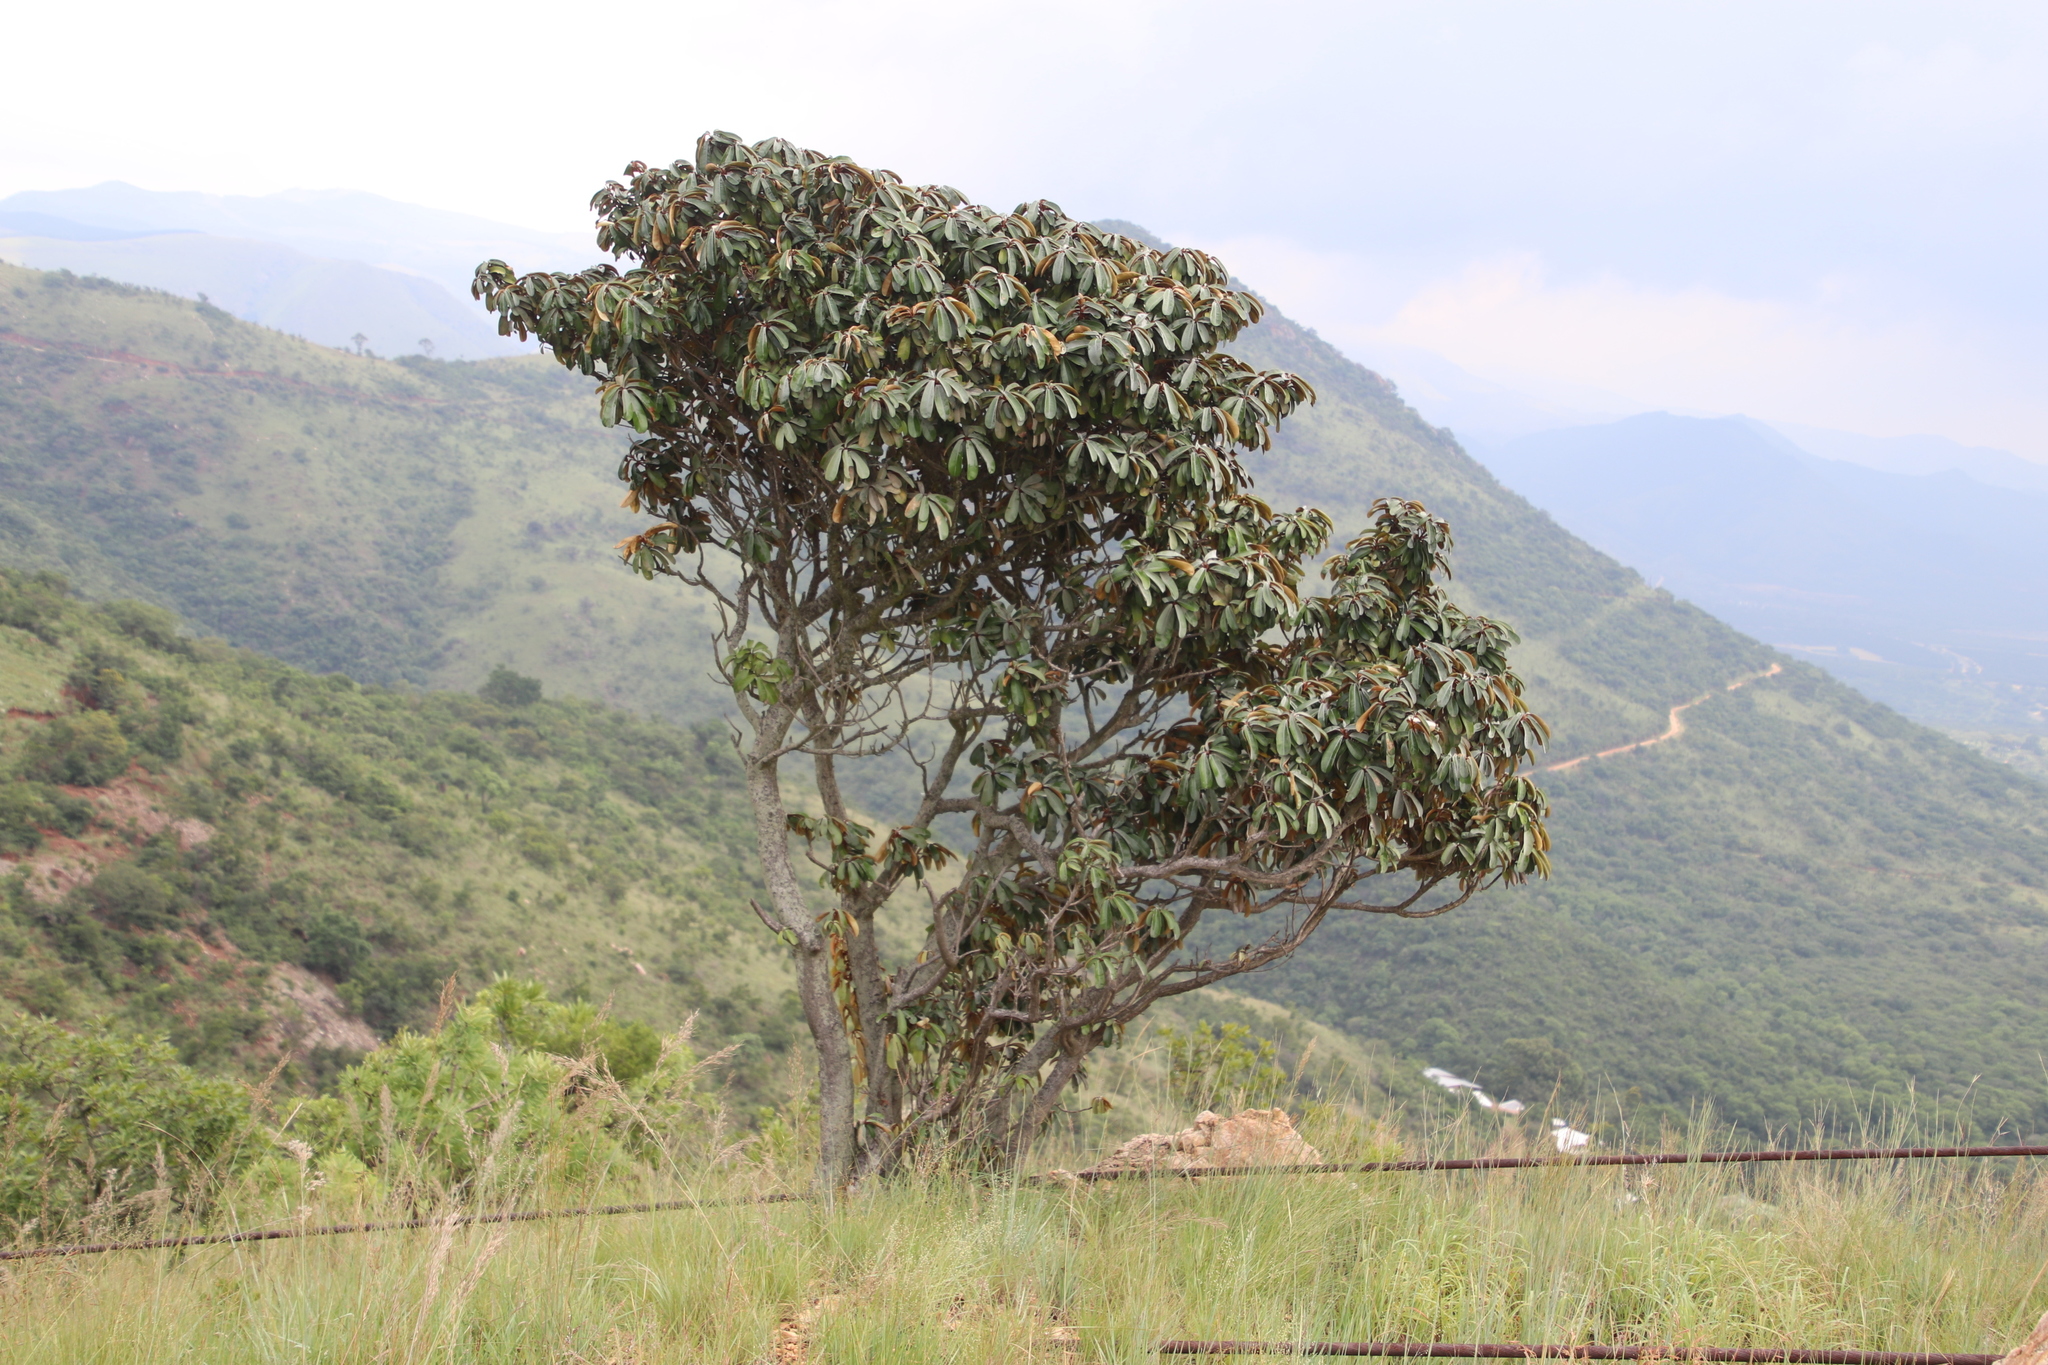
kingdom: Plantae
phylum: Tracheophyta
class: Magnoliopsida
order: Ericales
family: Sapotaceae
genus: Englerophytum
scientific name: Englerophytum magalismontanum
